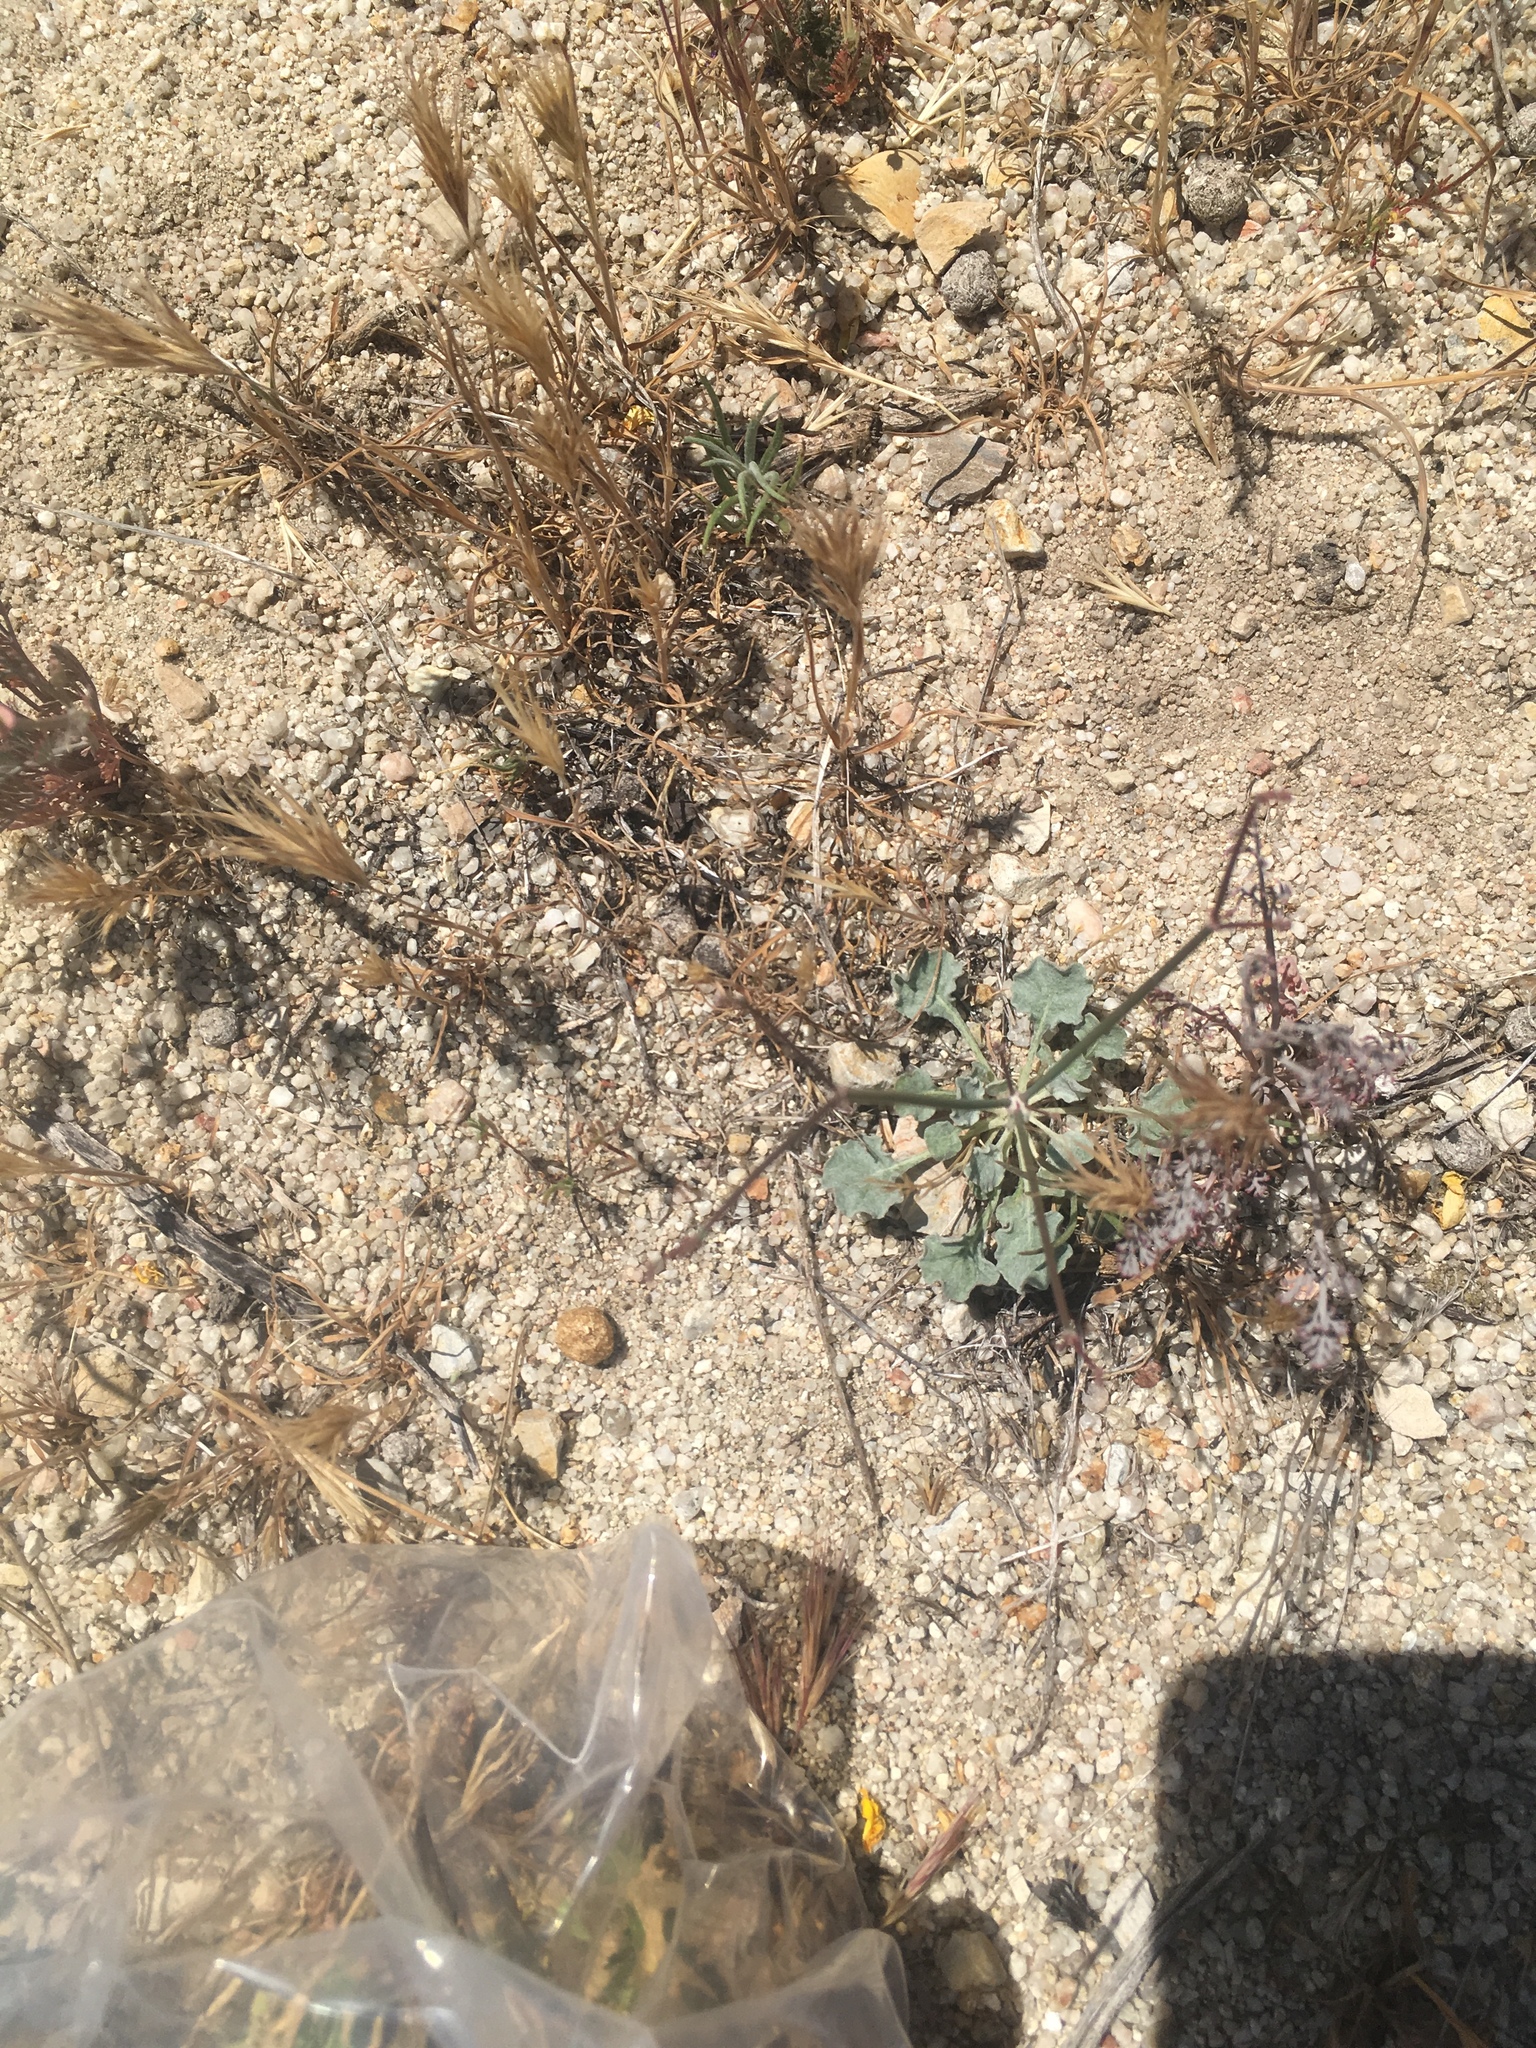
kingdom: Plantae
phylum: Tracheophyta
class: Magnoliopsida
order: Caryophyllales
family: Polygonaceae
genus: Eriogonum
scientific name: Eriogonum elegans
